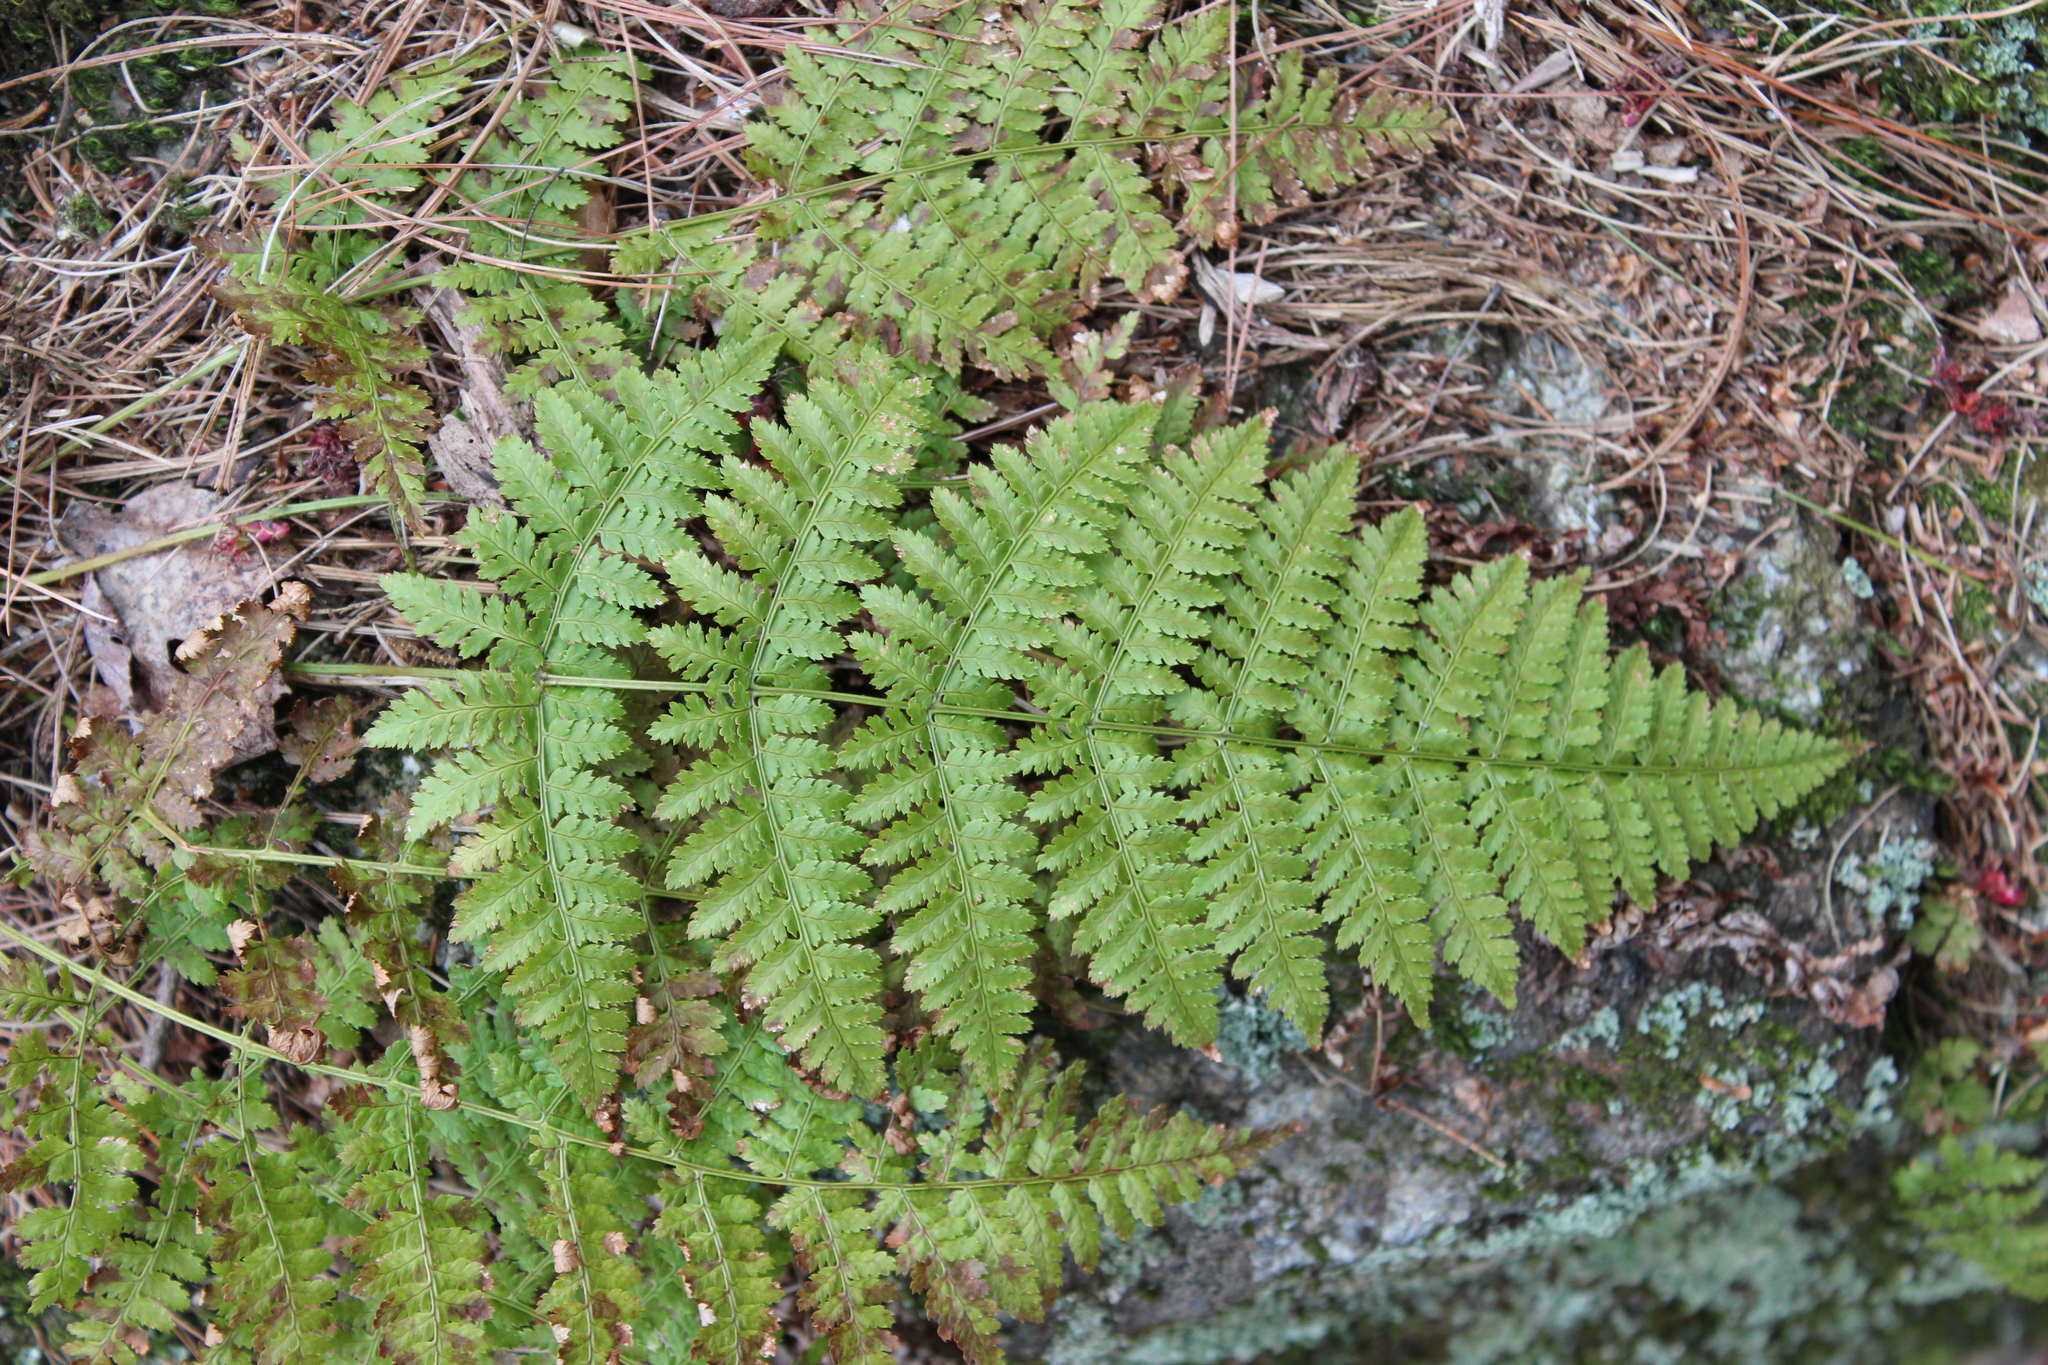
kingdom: Plantae
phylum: Tracheophyta
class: Polypodiopsida
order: Polypodiales
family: Dryopteridaceae
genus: Dryopteris
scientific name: Dryopteris intermedia
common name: Evergreen wood fern
